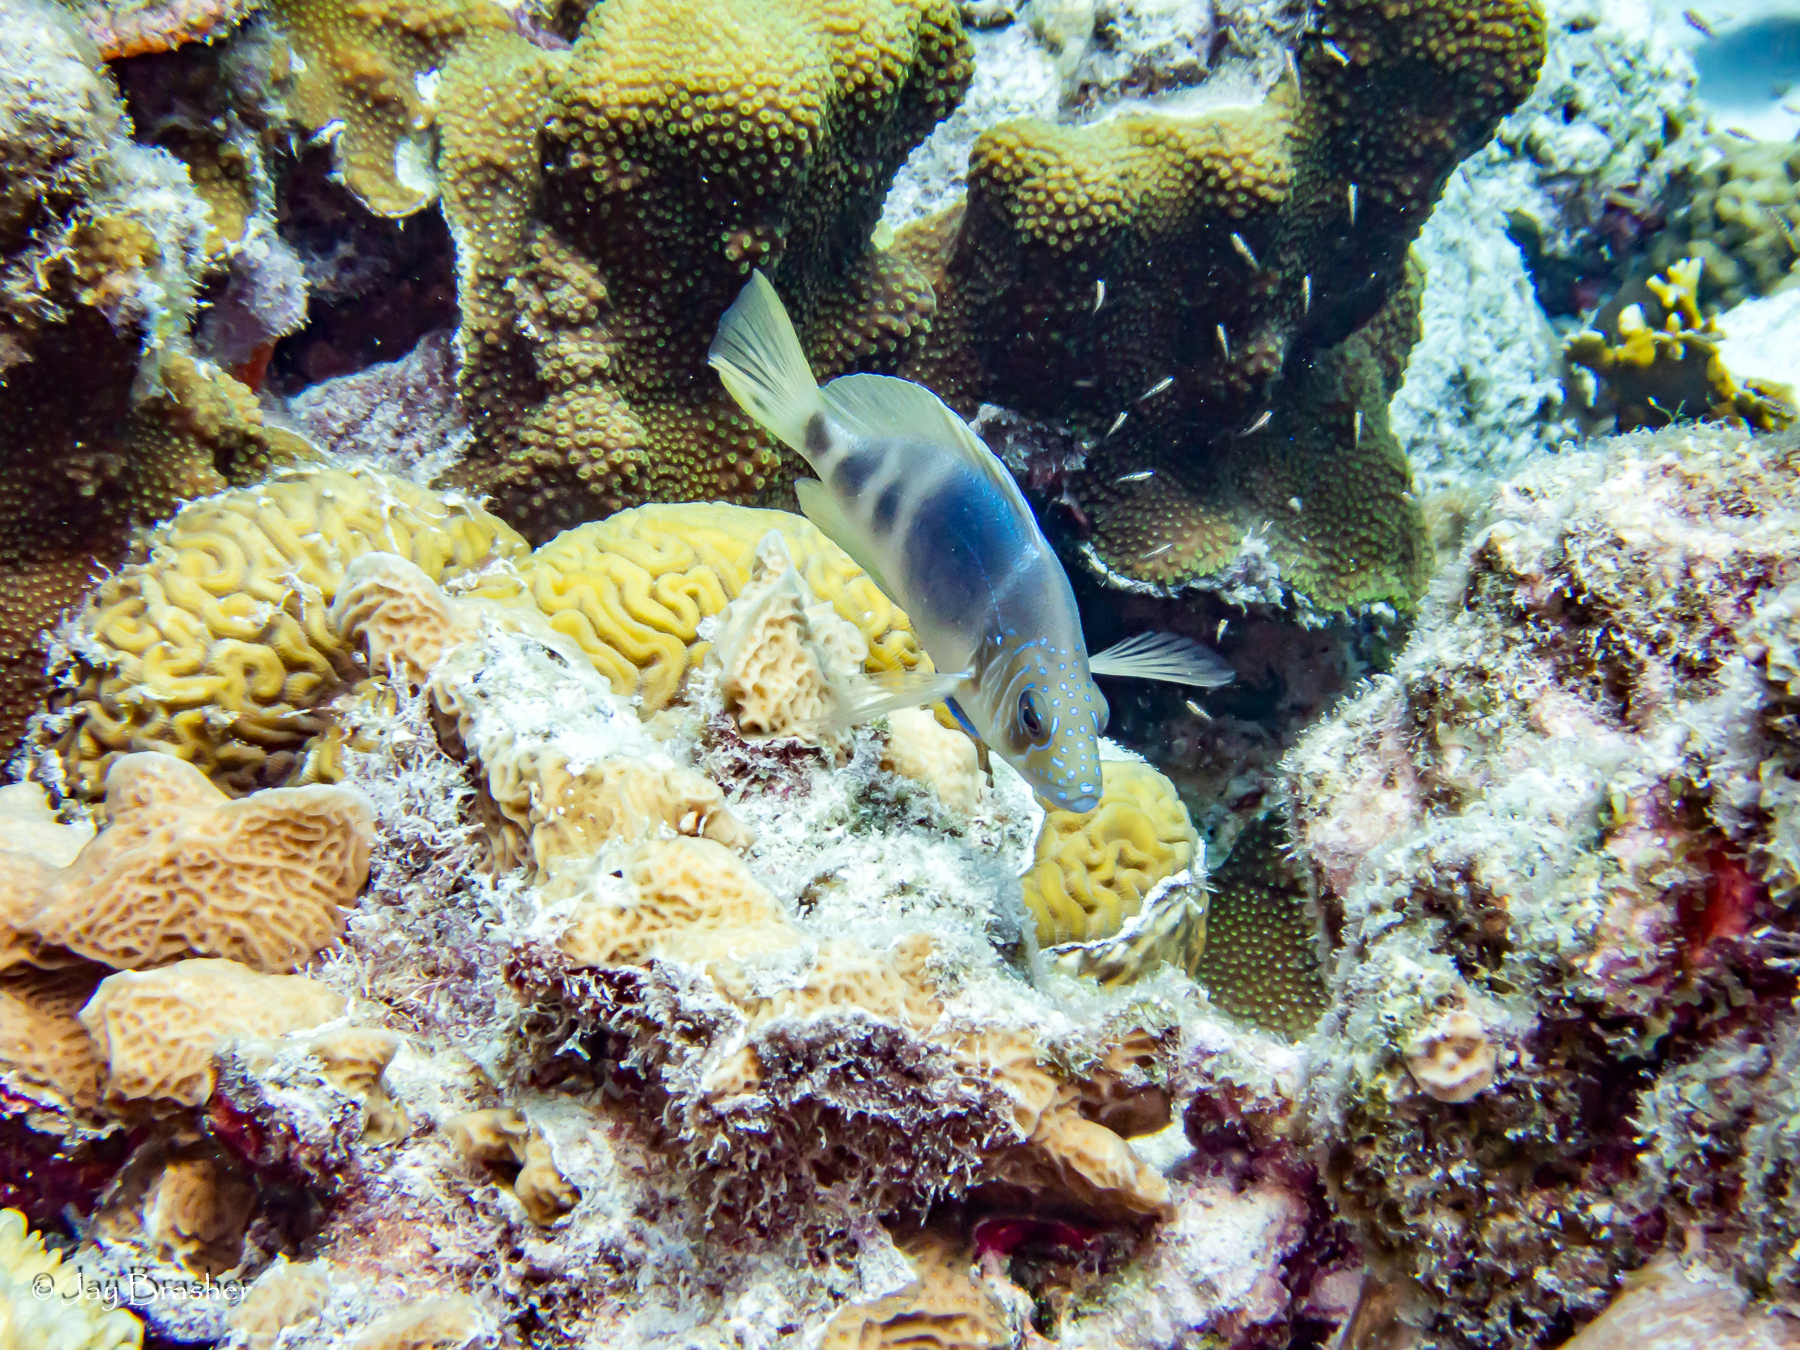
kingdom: Animalia
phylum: Chordata
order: Perciformes
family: Serranidae
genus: Hypoplectrus
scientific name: Hypoplectrus puella
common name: Barred hamlet
